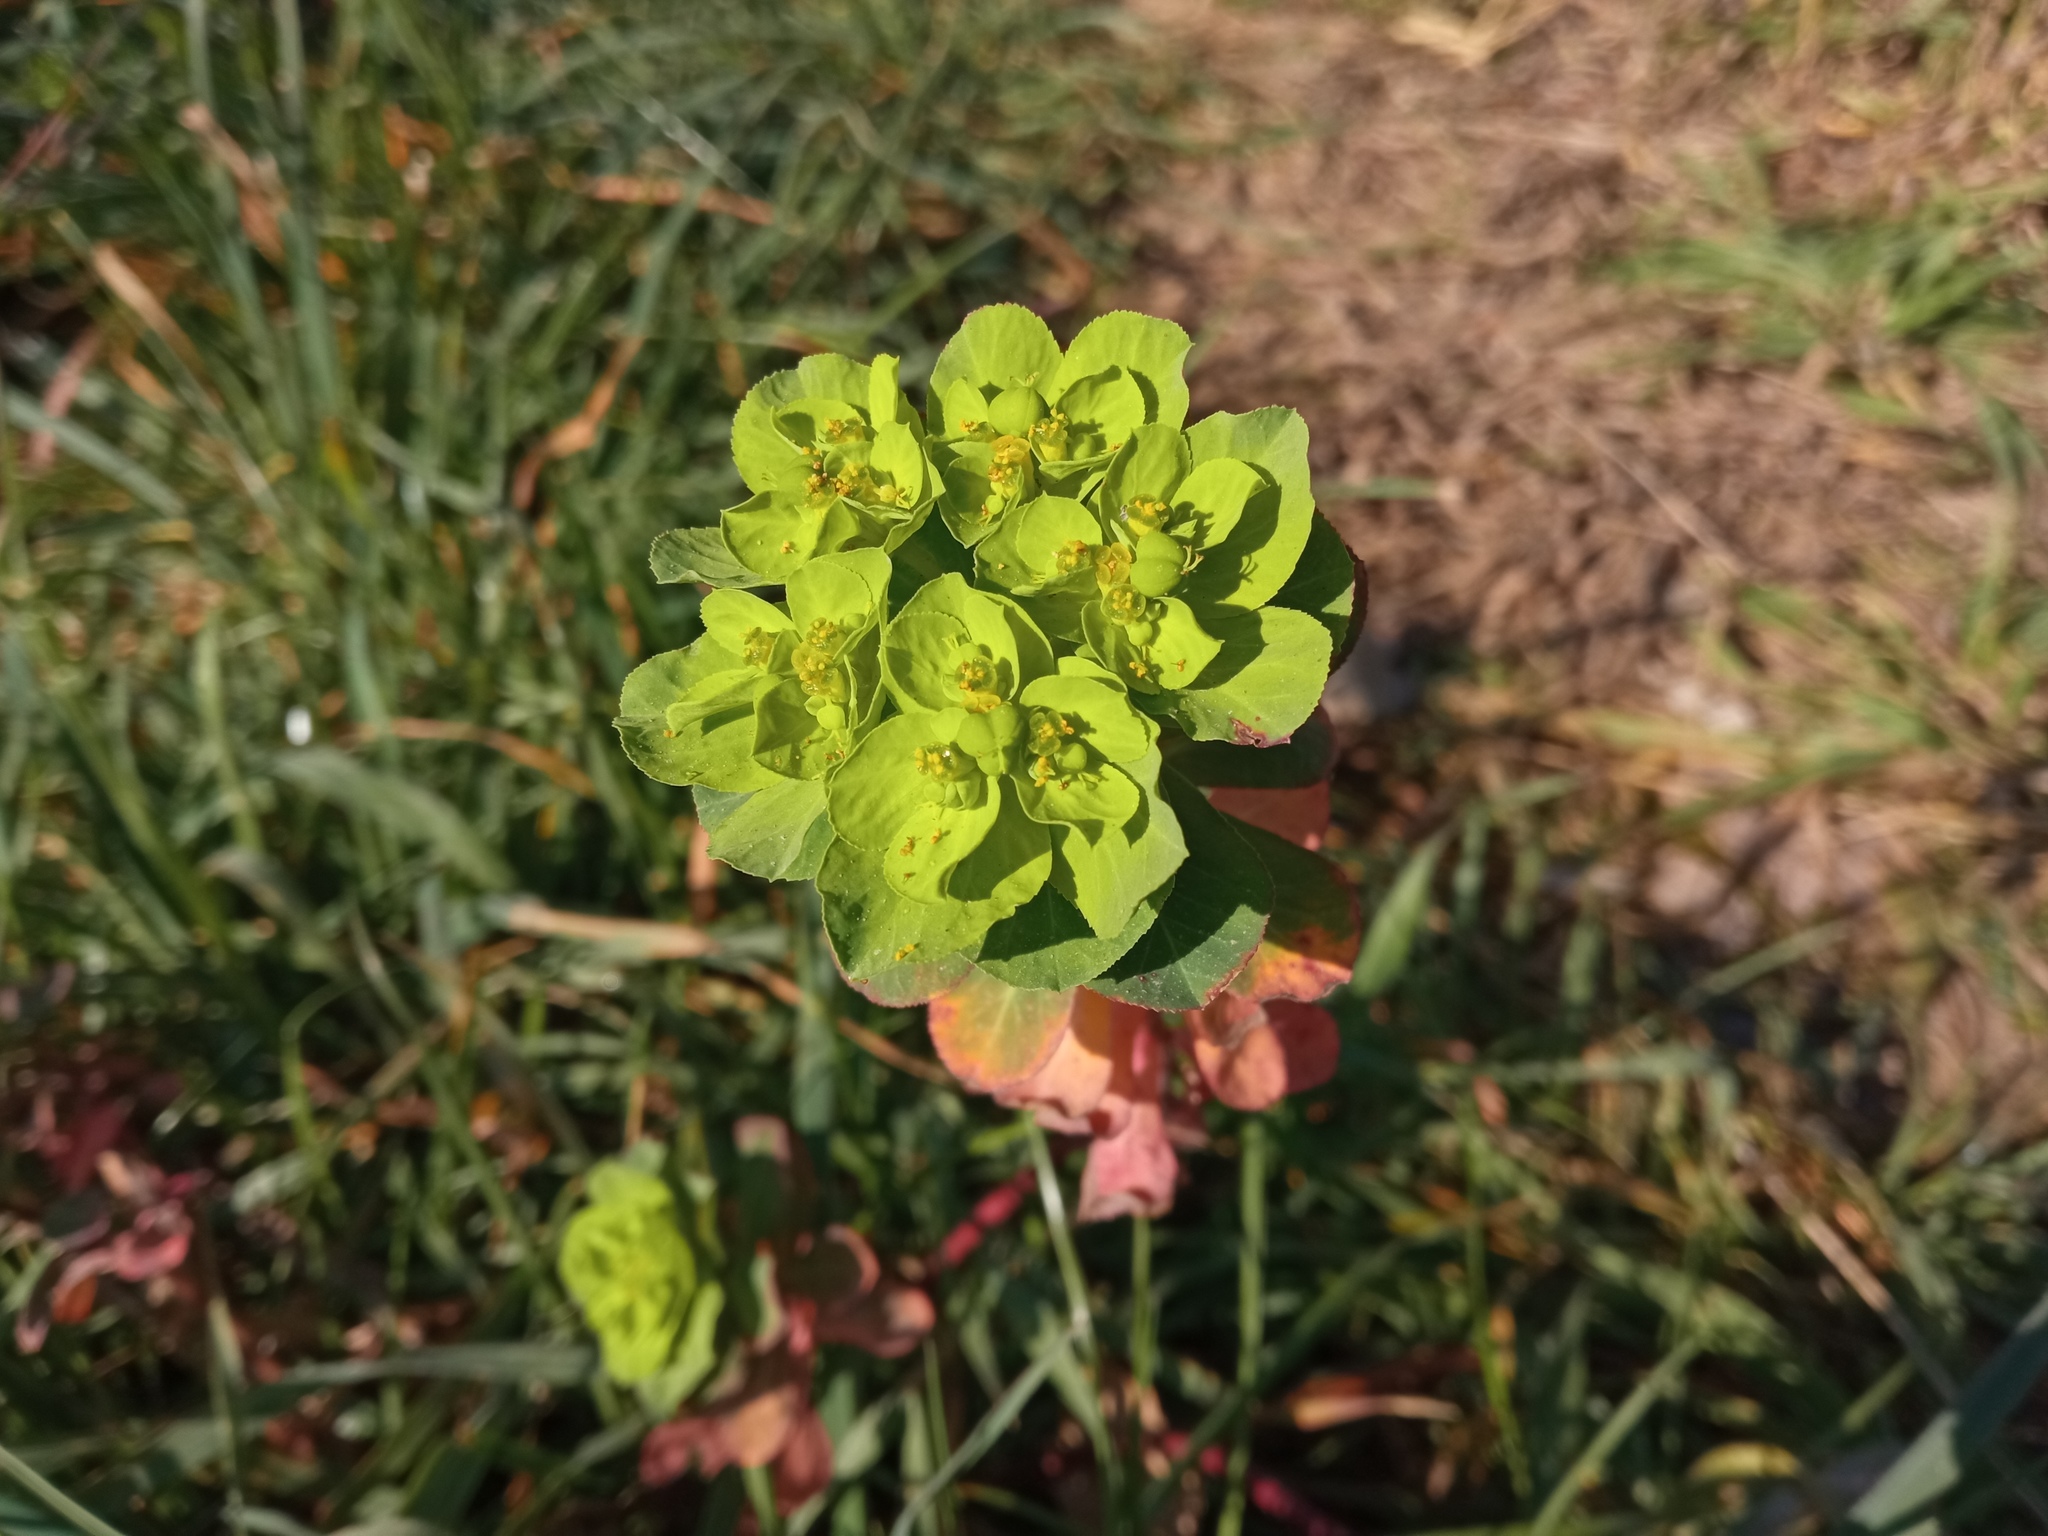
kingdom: Plantae
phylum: Tracheophyta
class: Magnoliopsida
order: Malpighiales
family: Euphorbiaceae
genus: Euphorbia
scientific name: Euphorbia helioscopia
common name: Sun spurge
